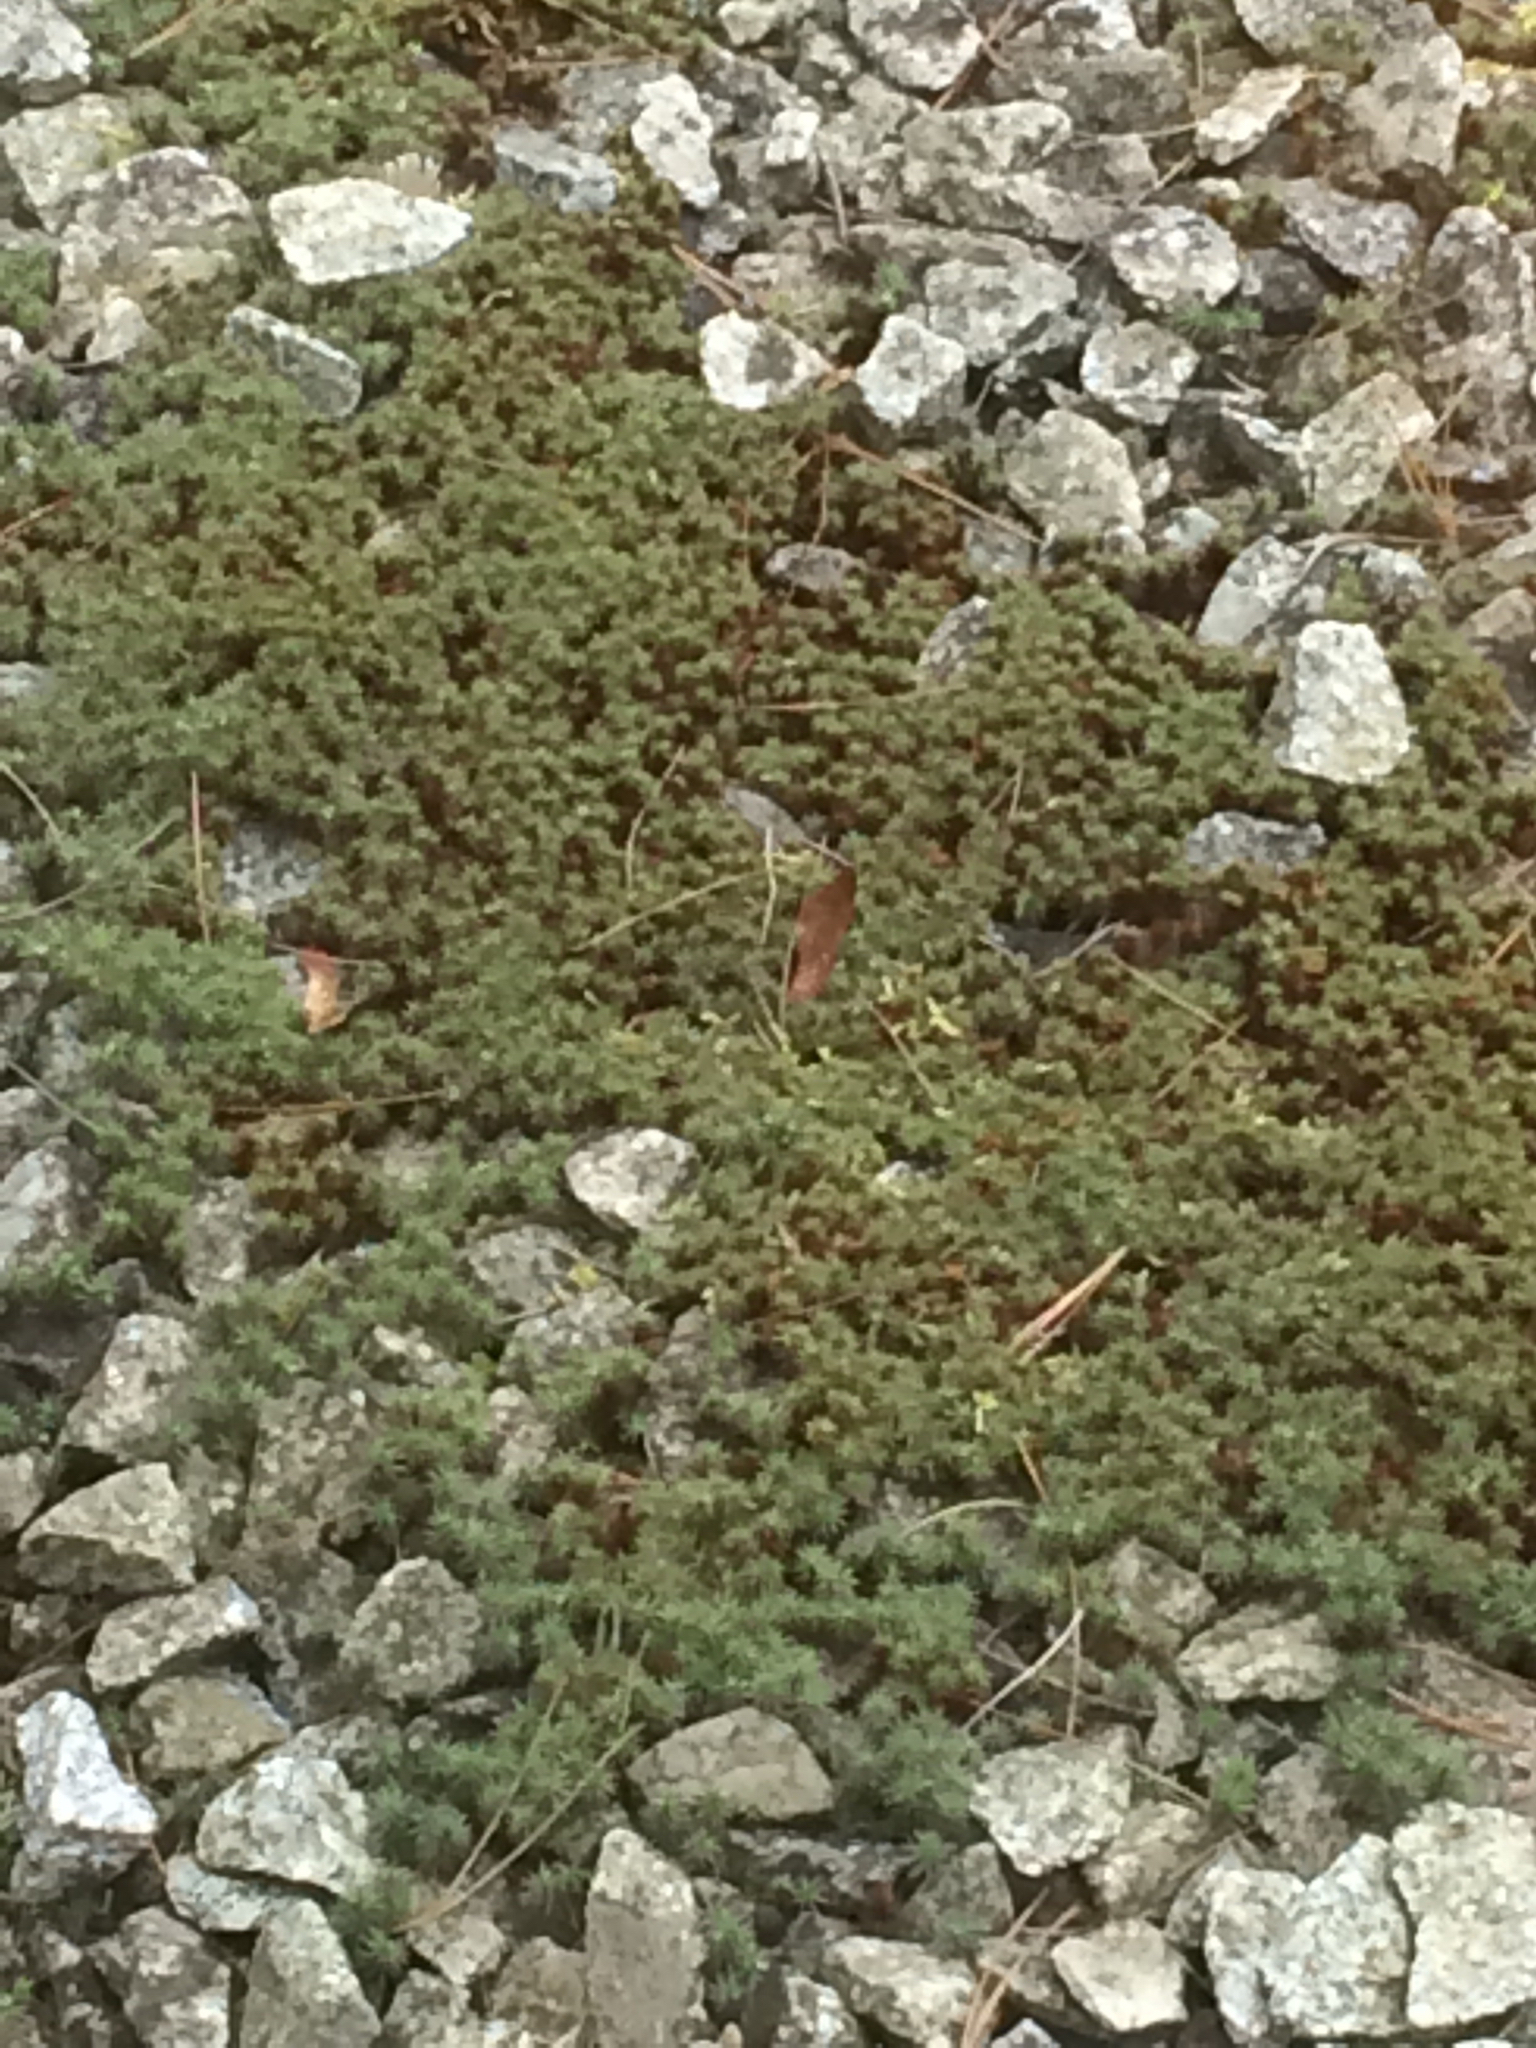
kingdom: Plantae
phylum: Bryophyta
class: Polytrichopsida
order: Polytrichales
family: Polytrichaceae
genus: Polytrichum
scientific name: Polytrichum juniperinum
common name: Juniper haircap moss
